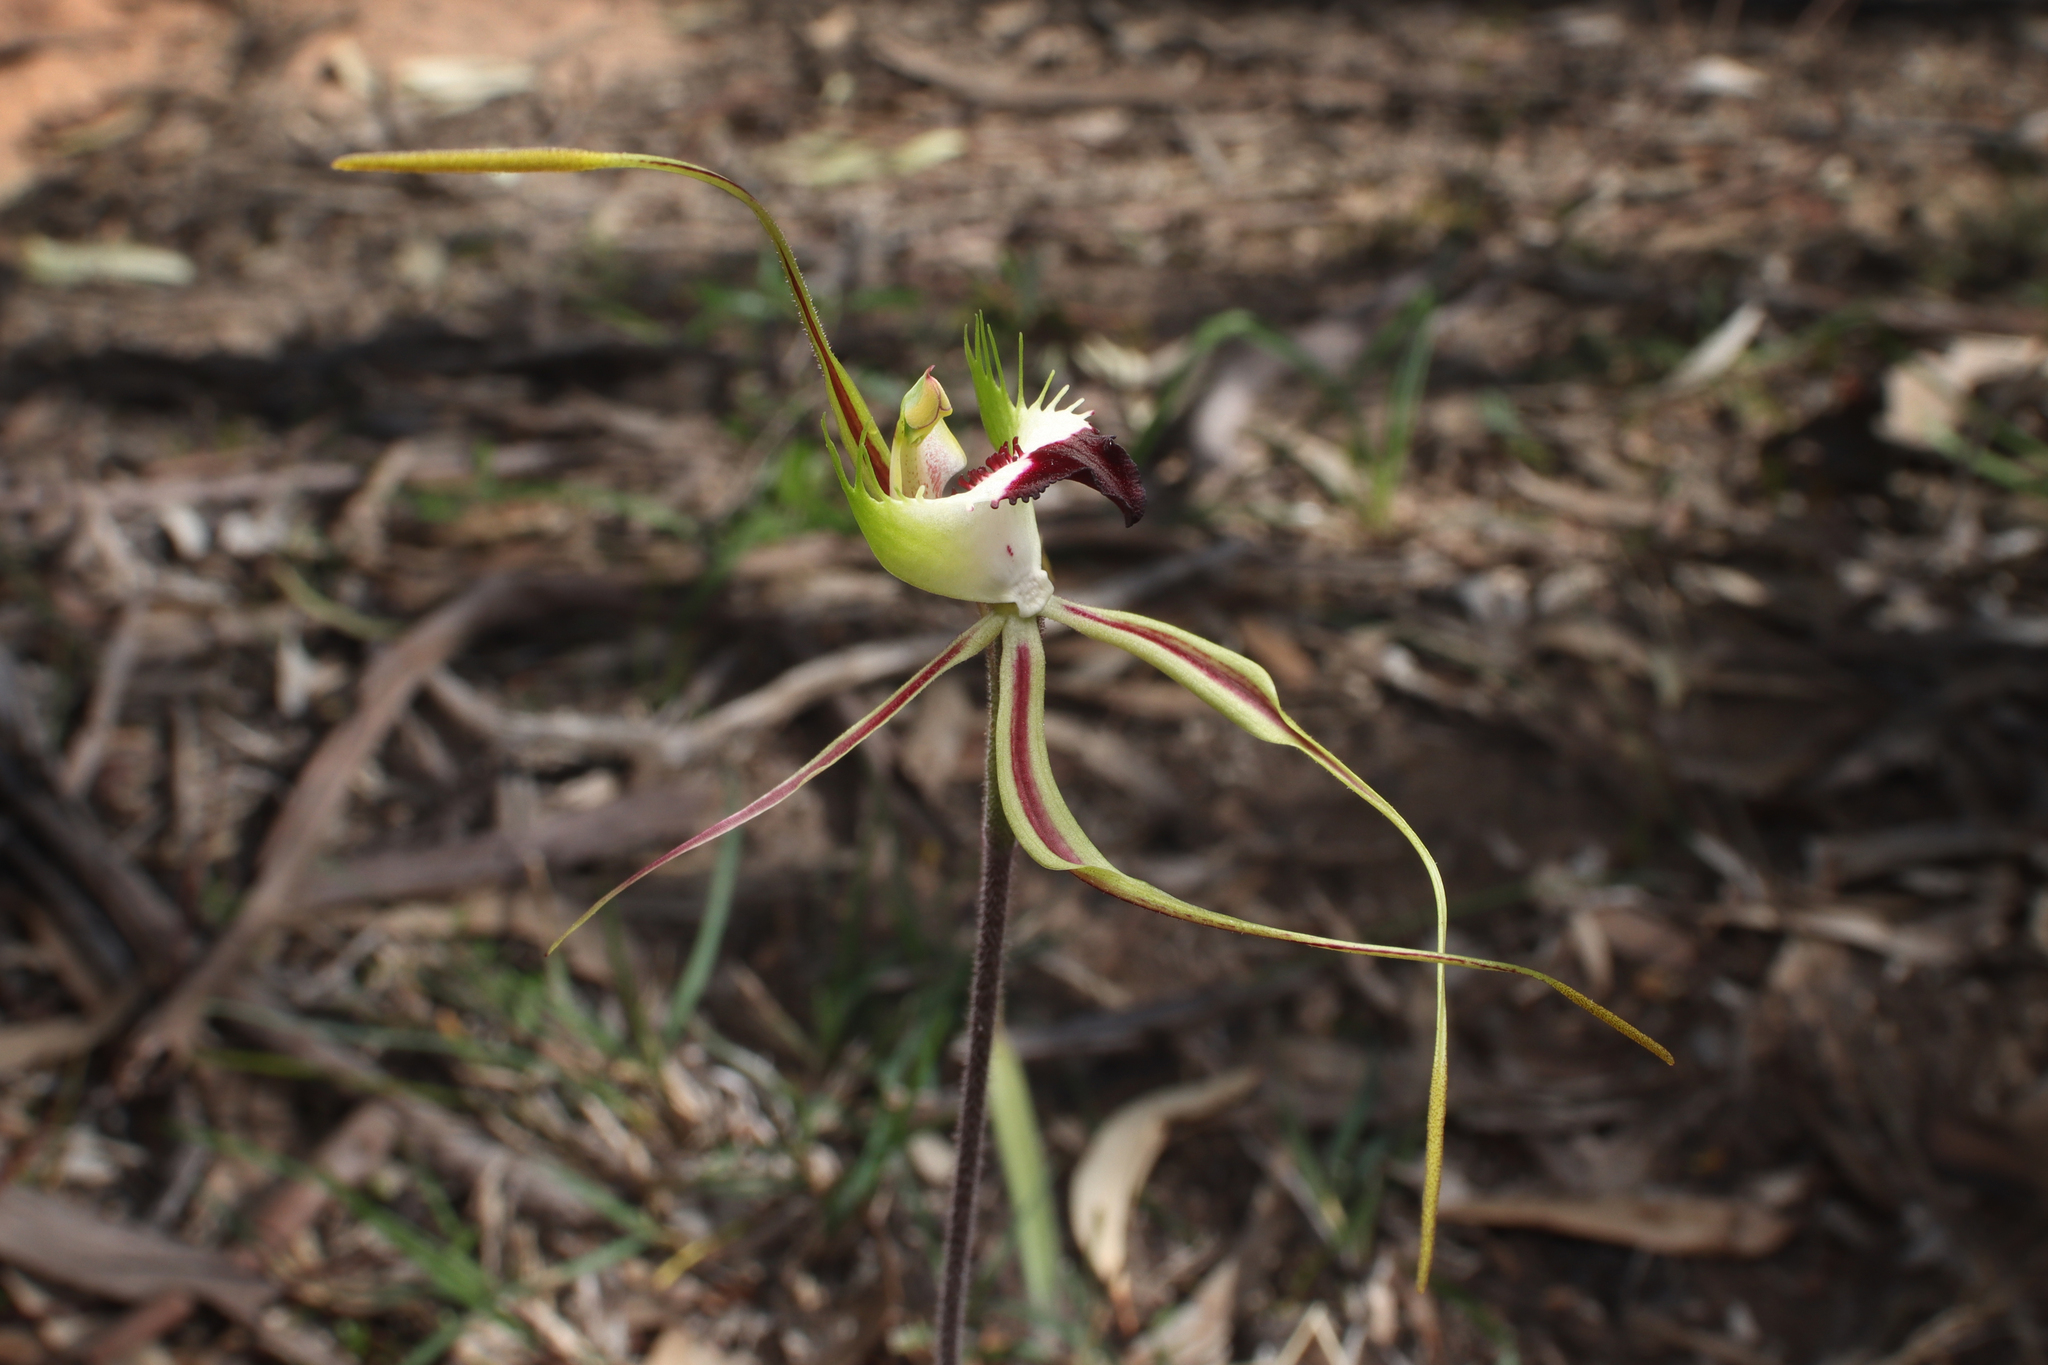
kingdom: Plantae
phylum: Tracheophyta
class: Liliopsida
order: Asparagales
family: Orchidaceae
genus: Caladenia
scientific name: Caladenia tentaculata
